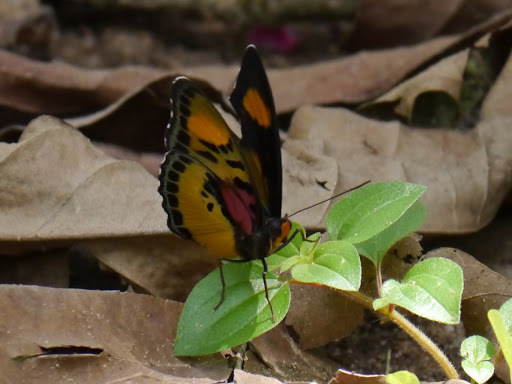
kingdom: Animalia
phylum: Arthropoda
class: Insecta
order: Lepidoptera
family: Nymphalidae
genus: Euphaedra
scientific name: Euphaedra janetta
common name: Janetta themis forester
